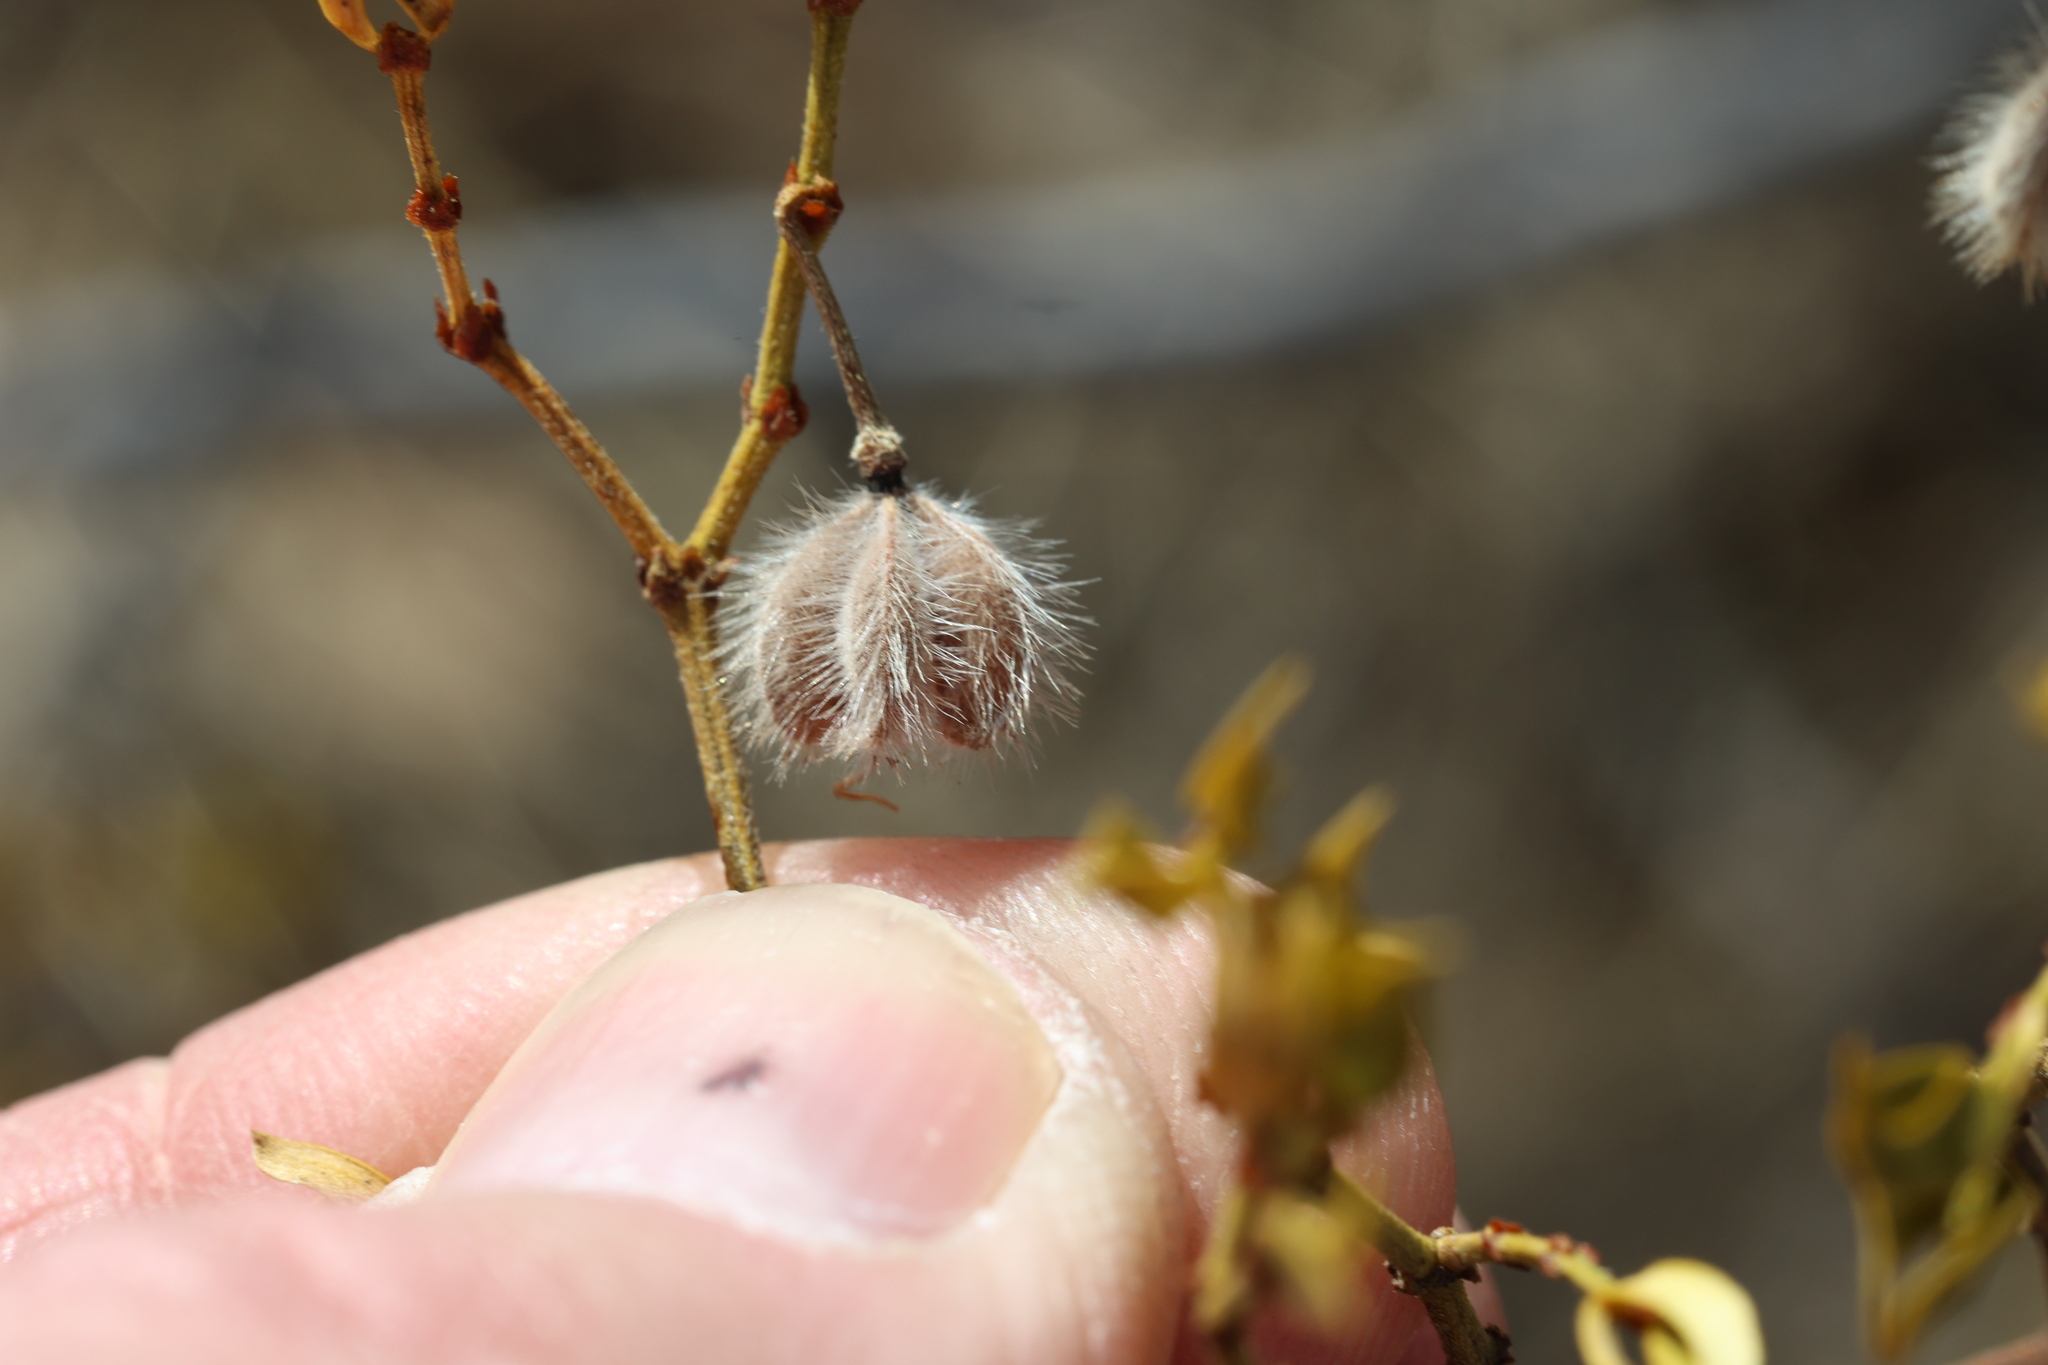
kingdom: Plantae
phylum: Tracheophyta
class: Magnoliopsida
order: Zygophyllales
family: Zygophyllaceae
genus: Larrea
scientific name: Larrea tridentata
